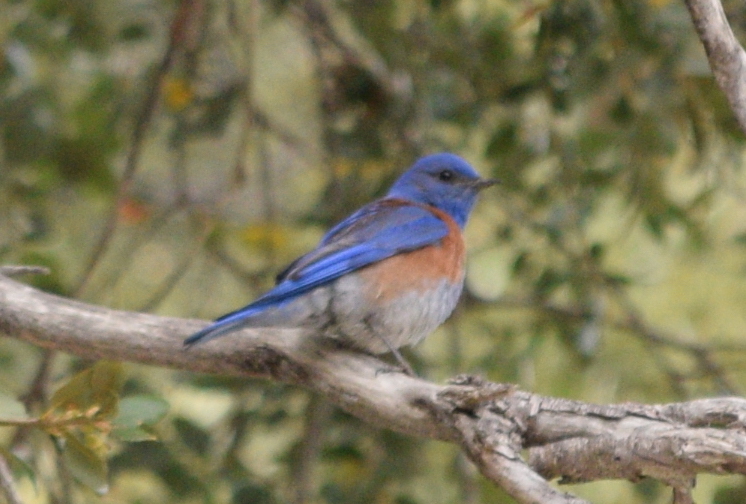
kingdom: Animalia
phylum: Chordata
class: Aves
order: Passeriformes
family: Turdidae
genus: Sialia
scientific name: Sialia mexicana
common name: Western bluebird
